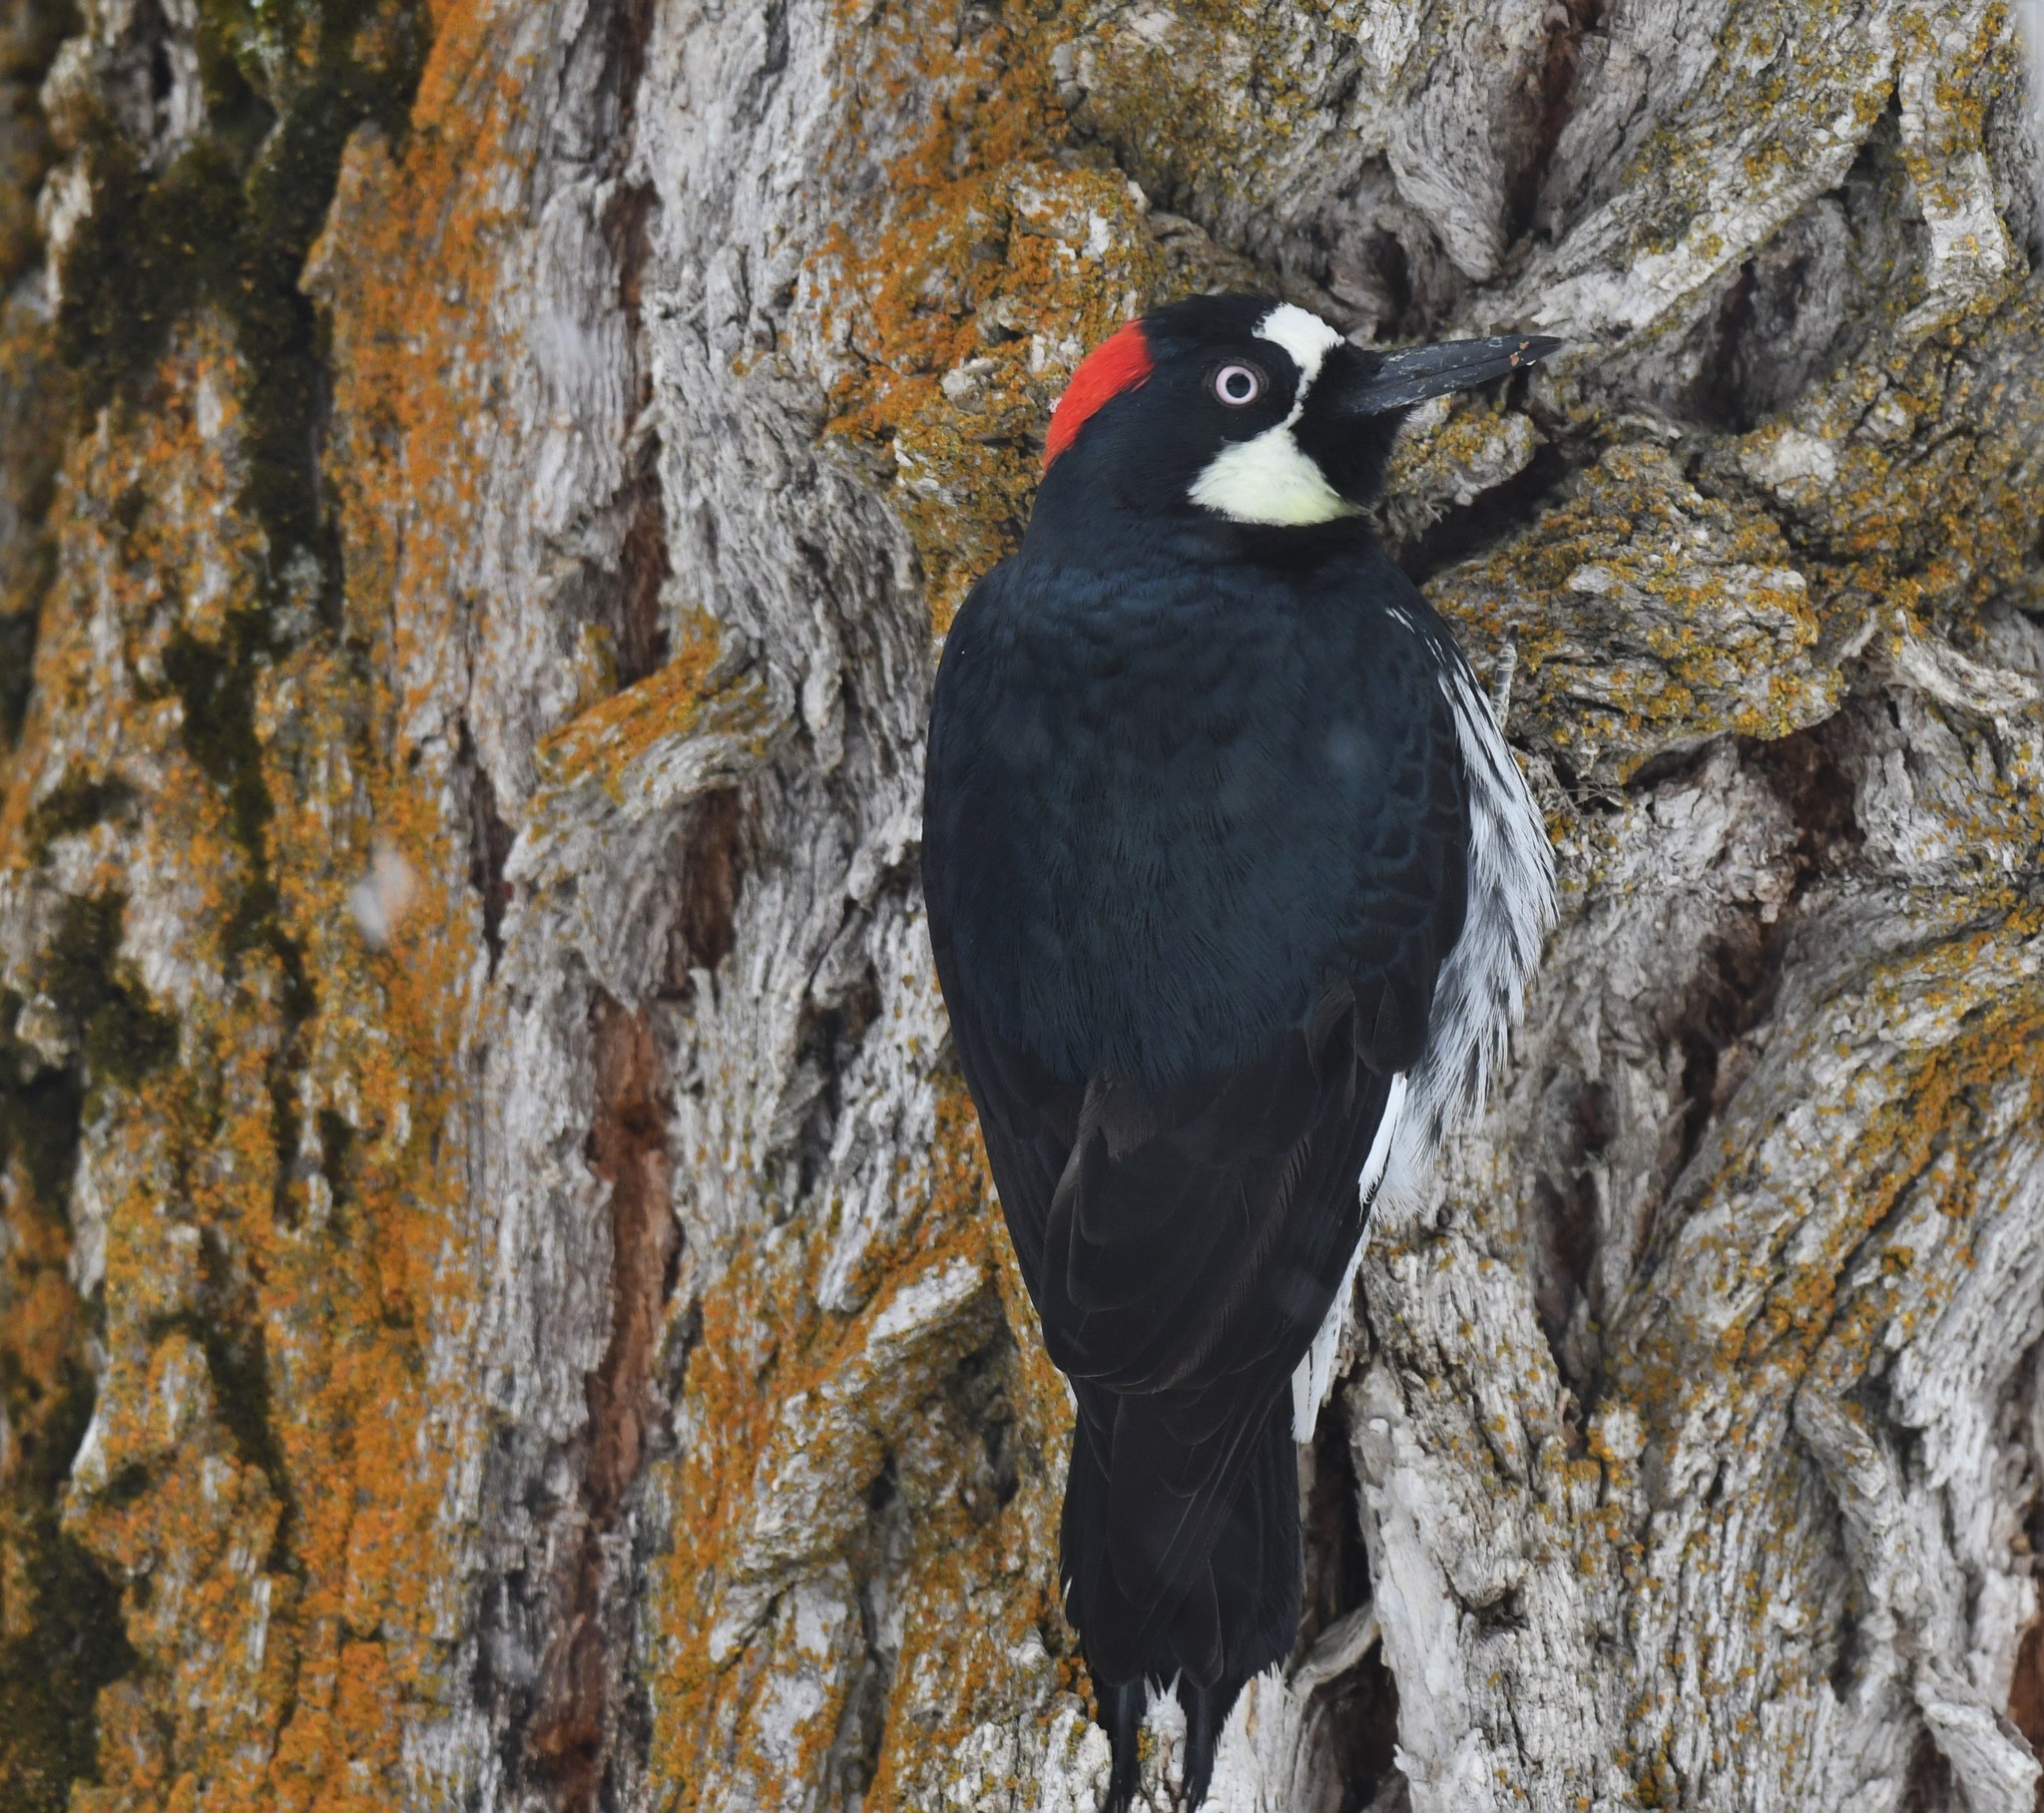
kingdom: Animalia
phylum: Chordata
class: Aves
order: Piciformes
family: Picidae
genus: Melanerpes
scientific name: Melanerpes formicivorus
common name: Acorn woodpecker
